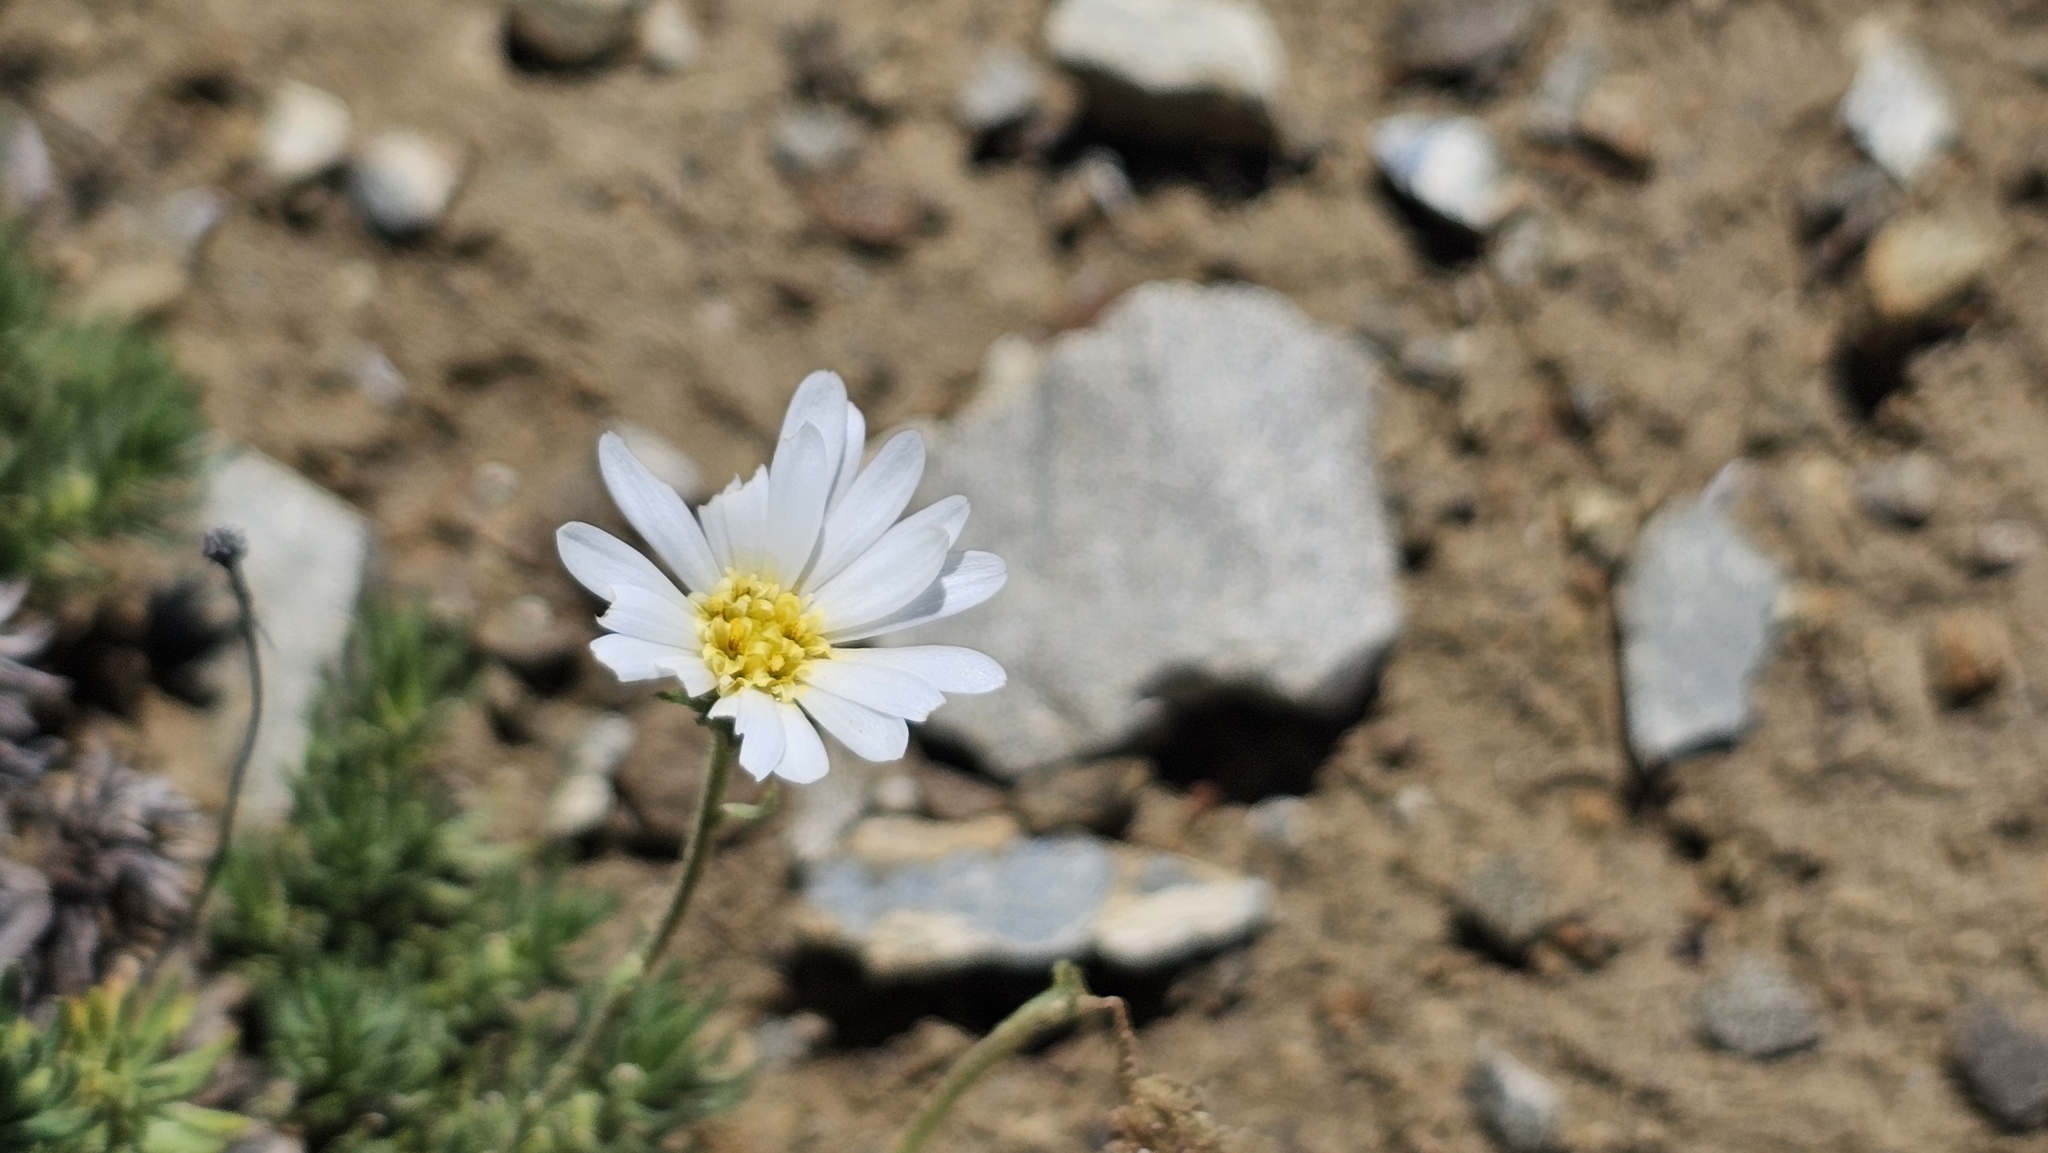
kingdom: Plantae
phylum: Tracheophyta
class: Magnoliopsida
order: Asterales
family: Asteraceae
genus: Celmisia
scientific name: Celmisia lateralis
